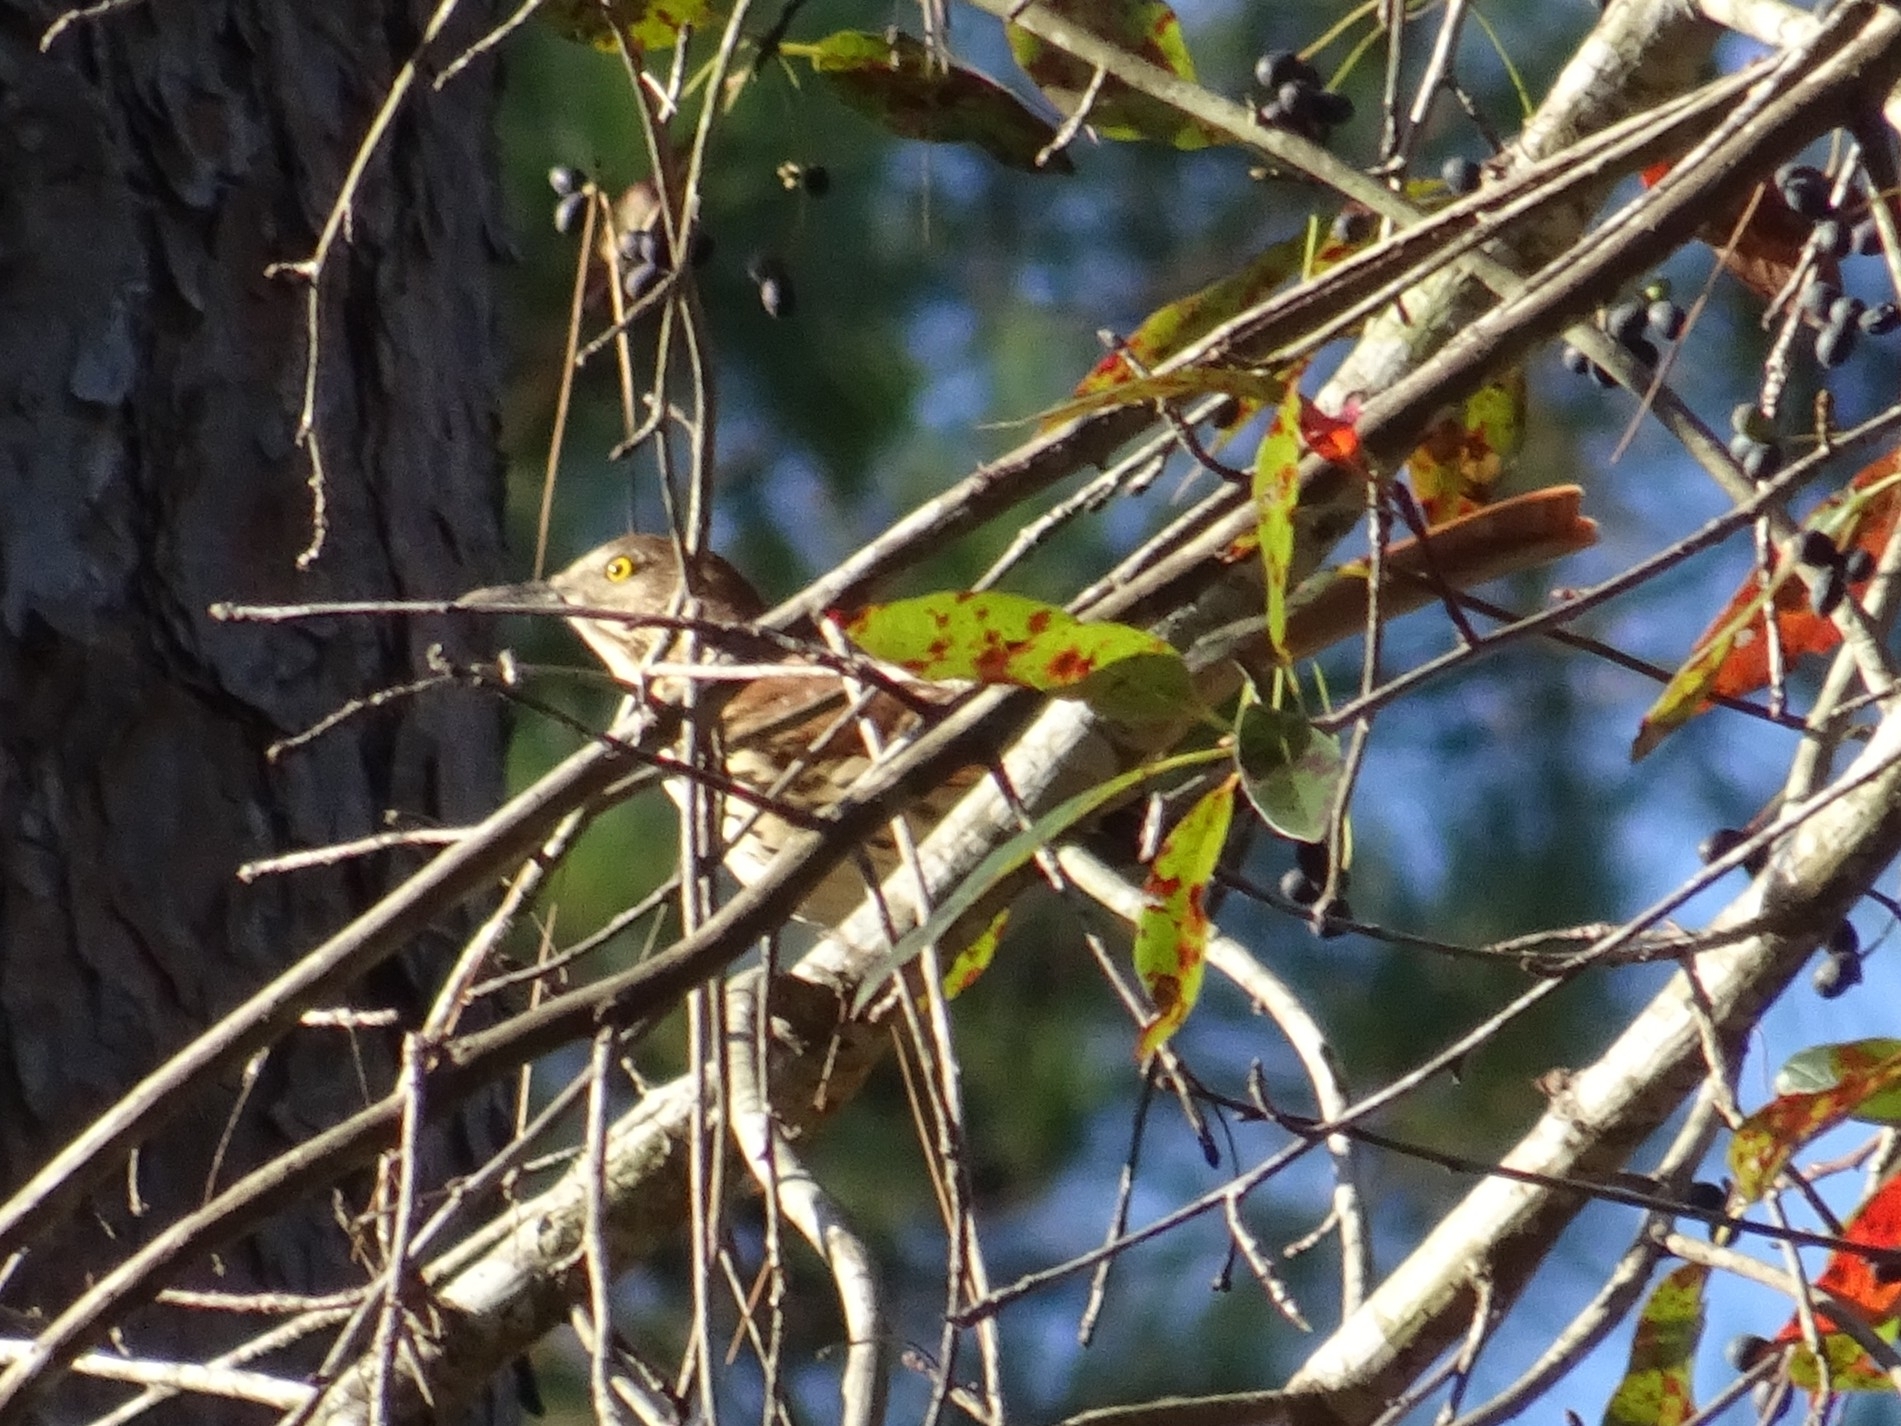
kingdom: Animalia
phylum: Chordata
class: Aves
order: Passeriformes
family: Mimidae
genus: Toxostoma
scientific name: Toxostoma rufum
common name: Brown thrasher
